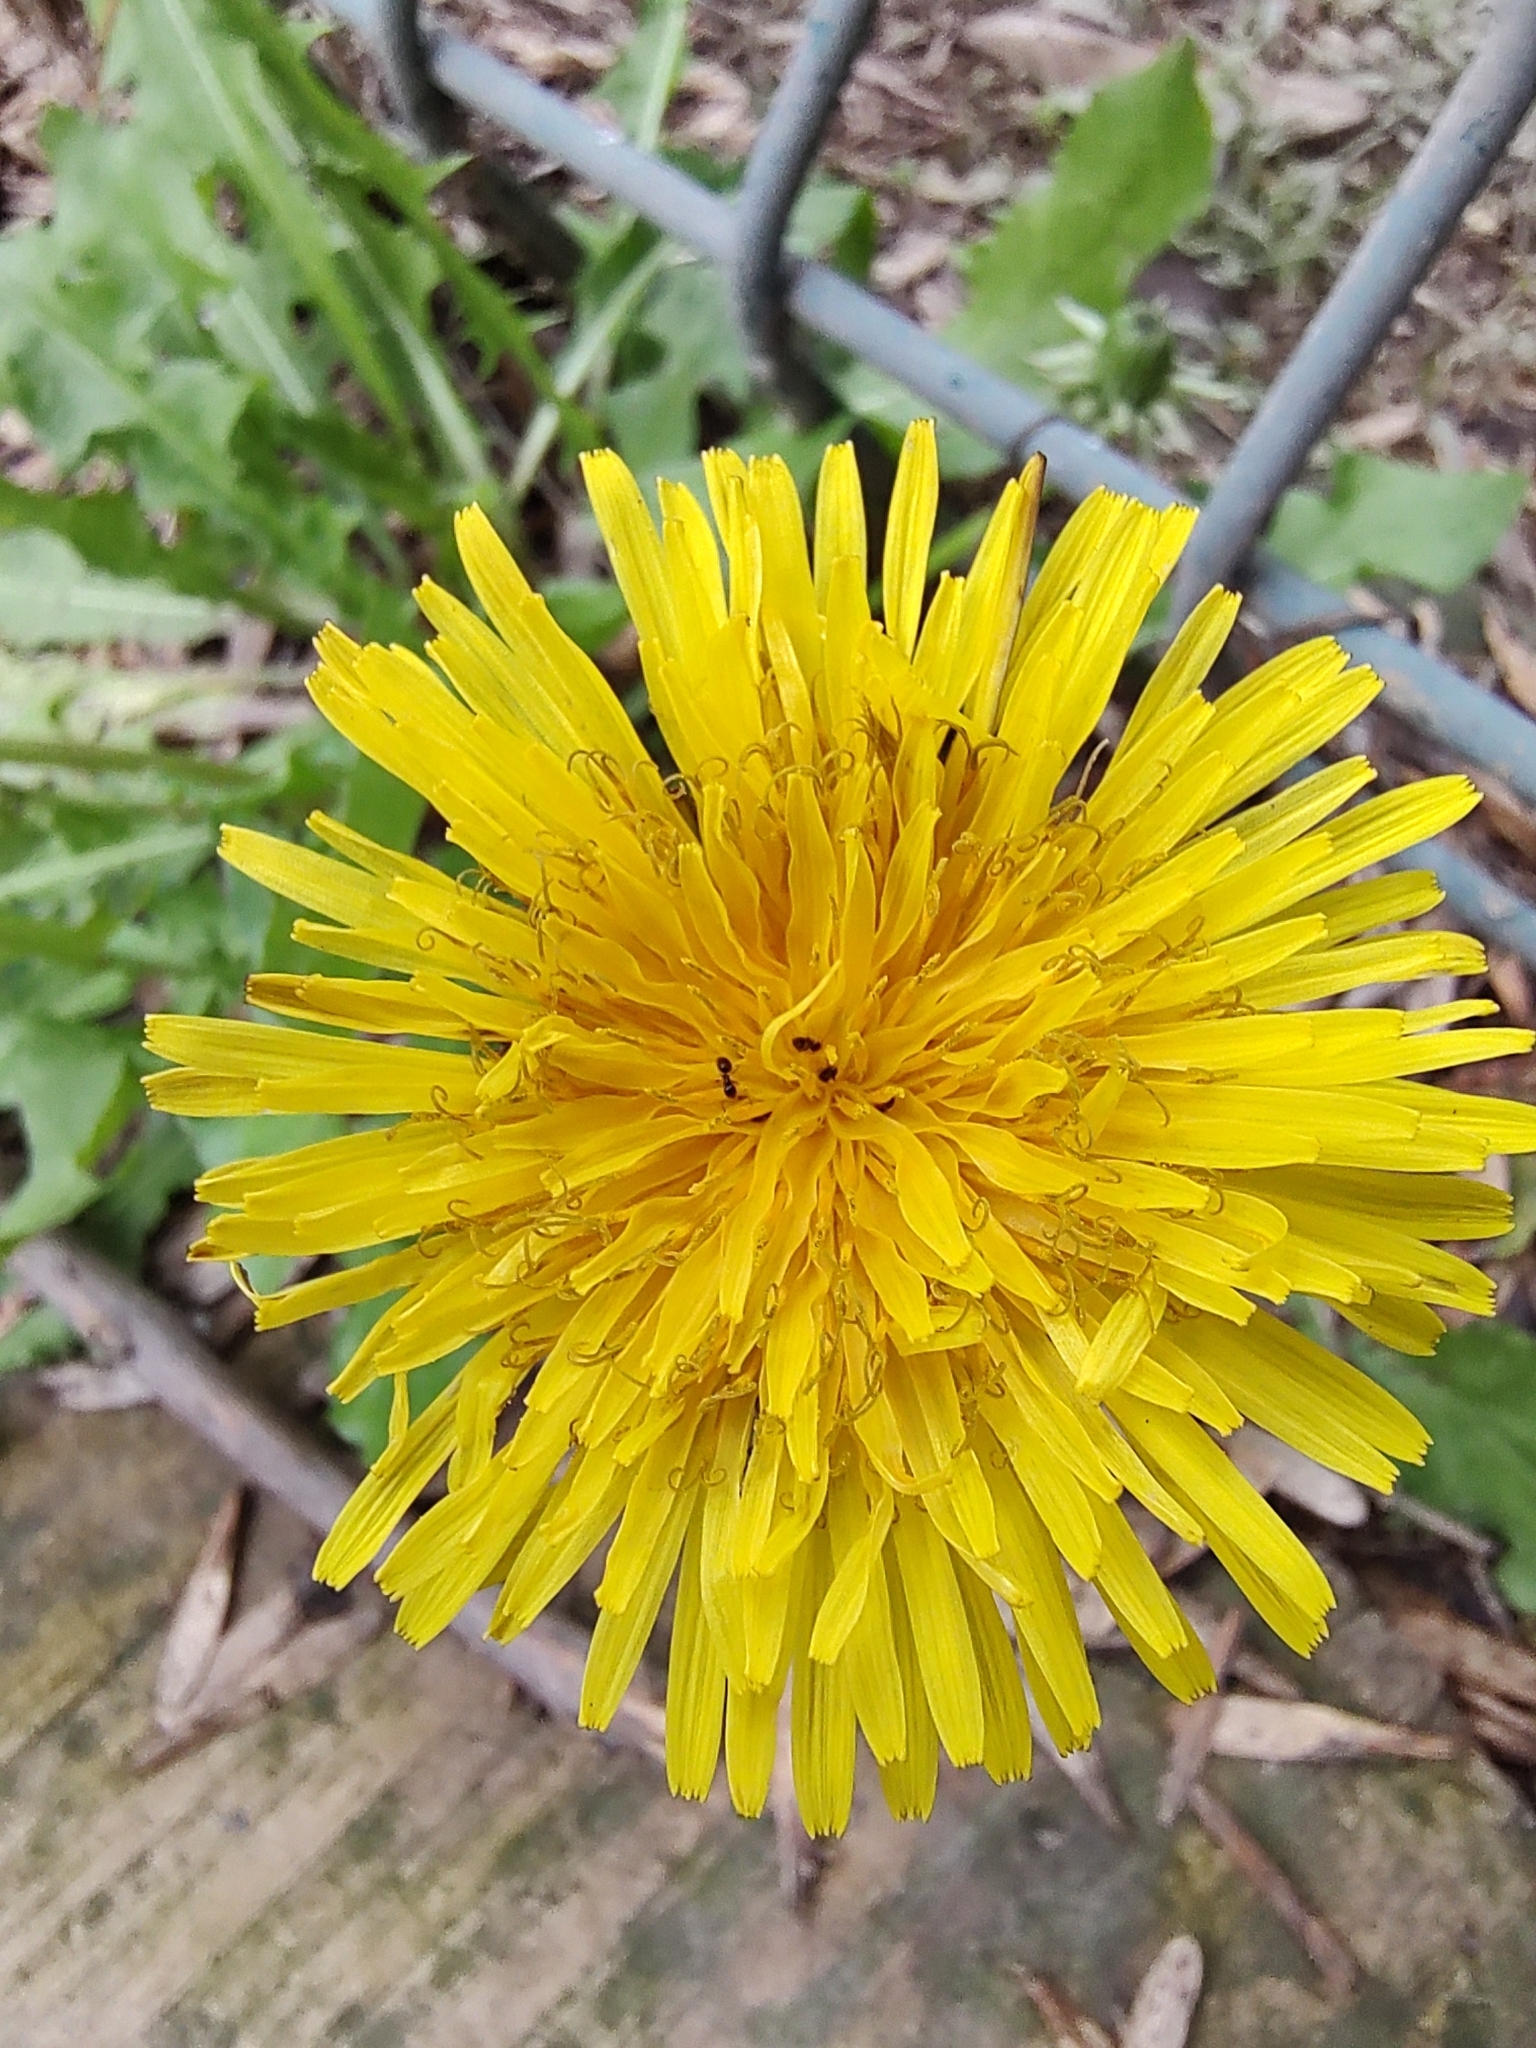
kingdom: Plantae
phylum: Tracheophyta
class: Magnoliopsida
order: Asterales
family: Asteraceae
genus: Taraxacum
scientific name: Taraxacum officinale
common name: Common dandelion
